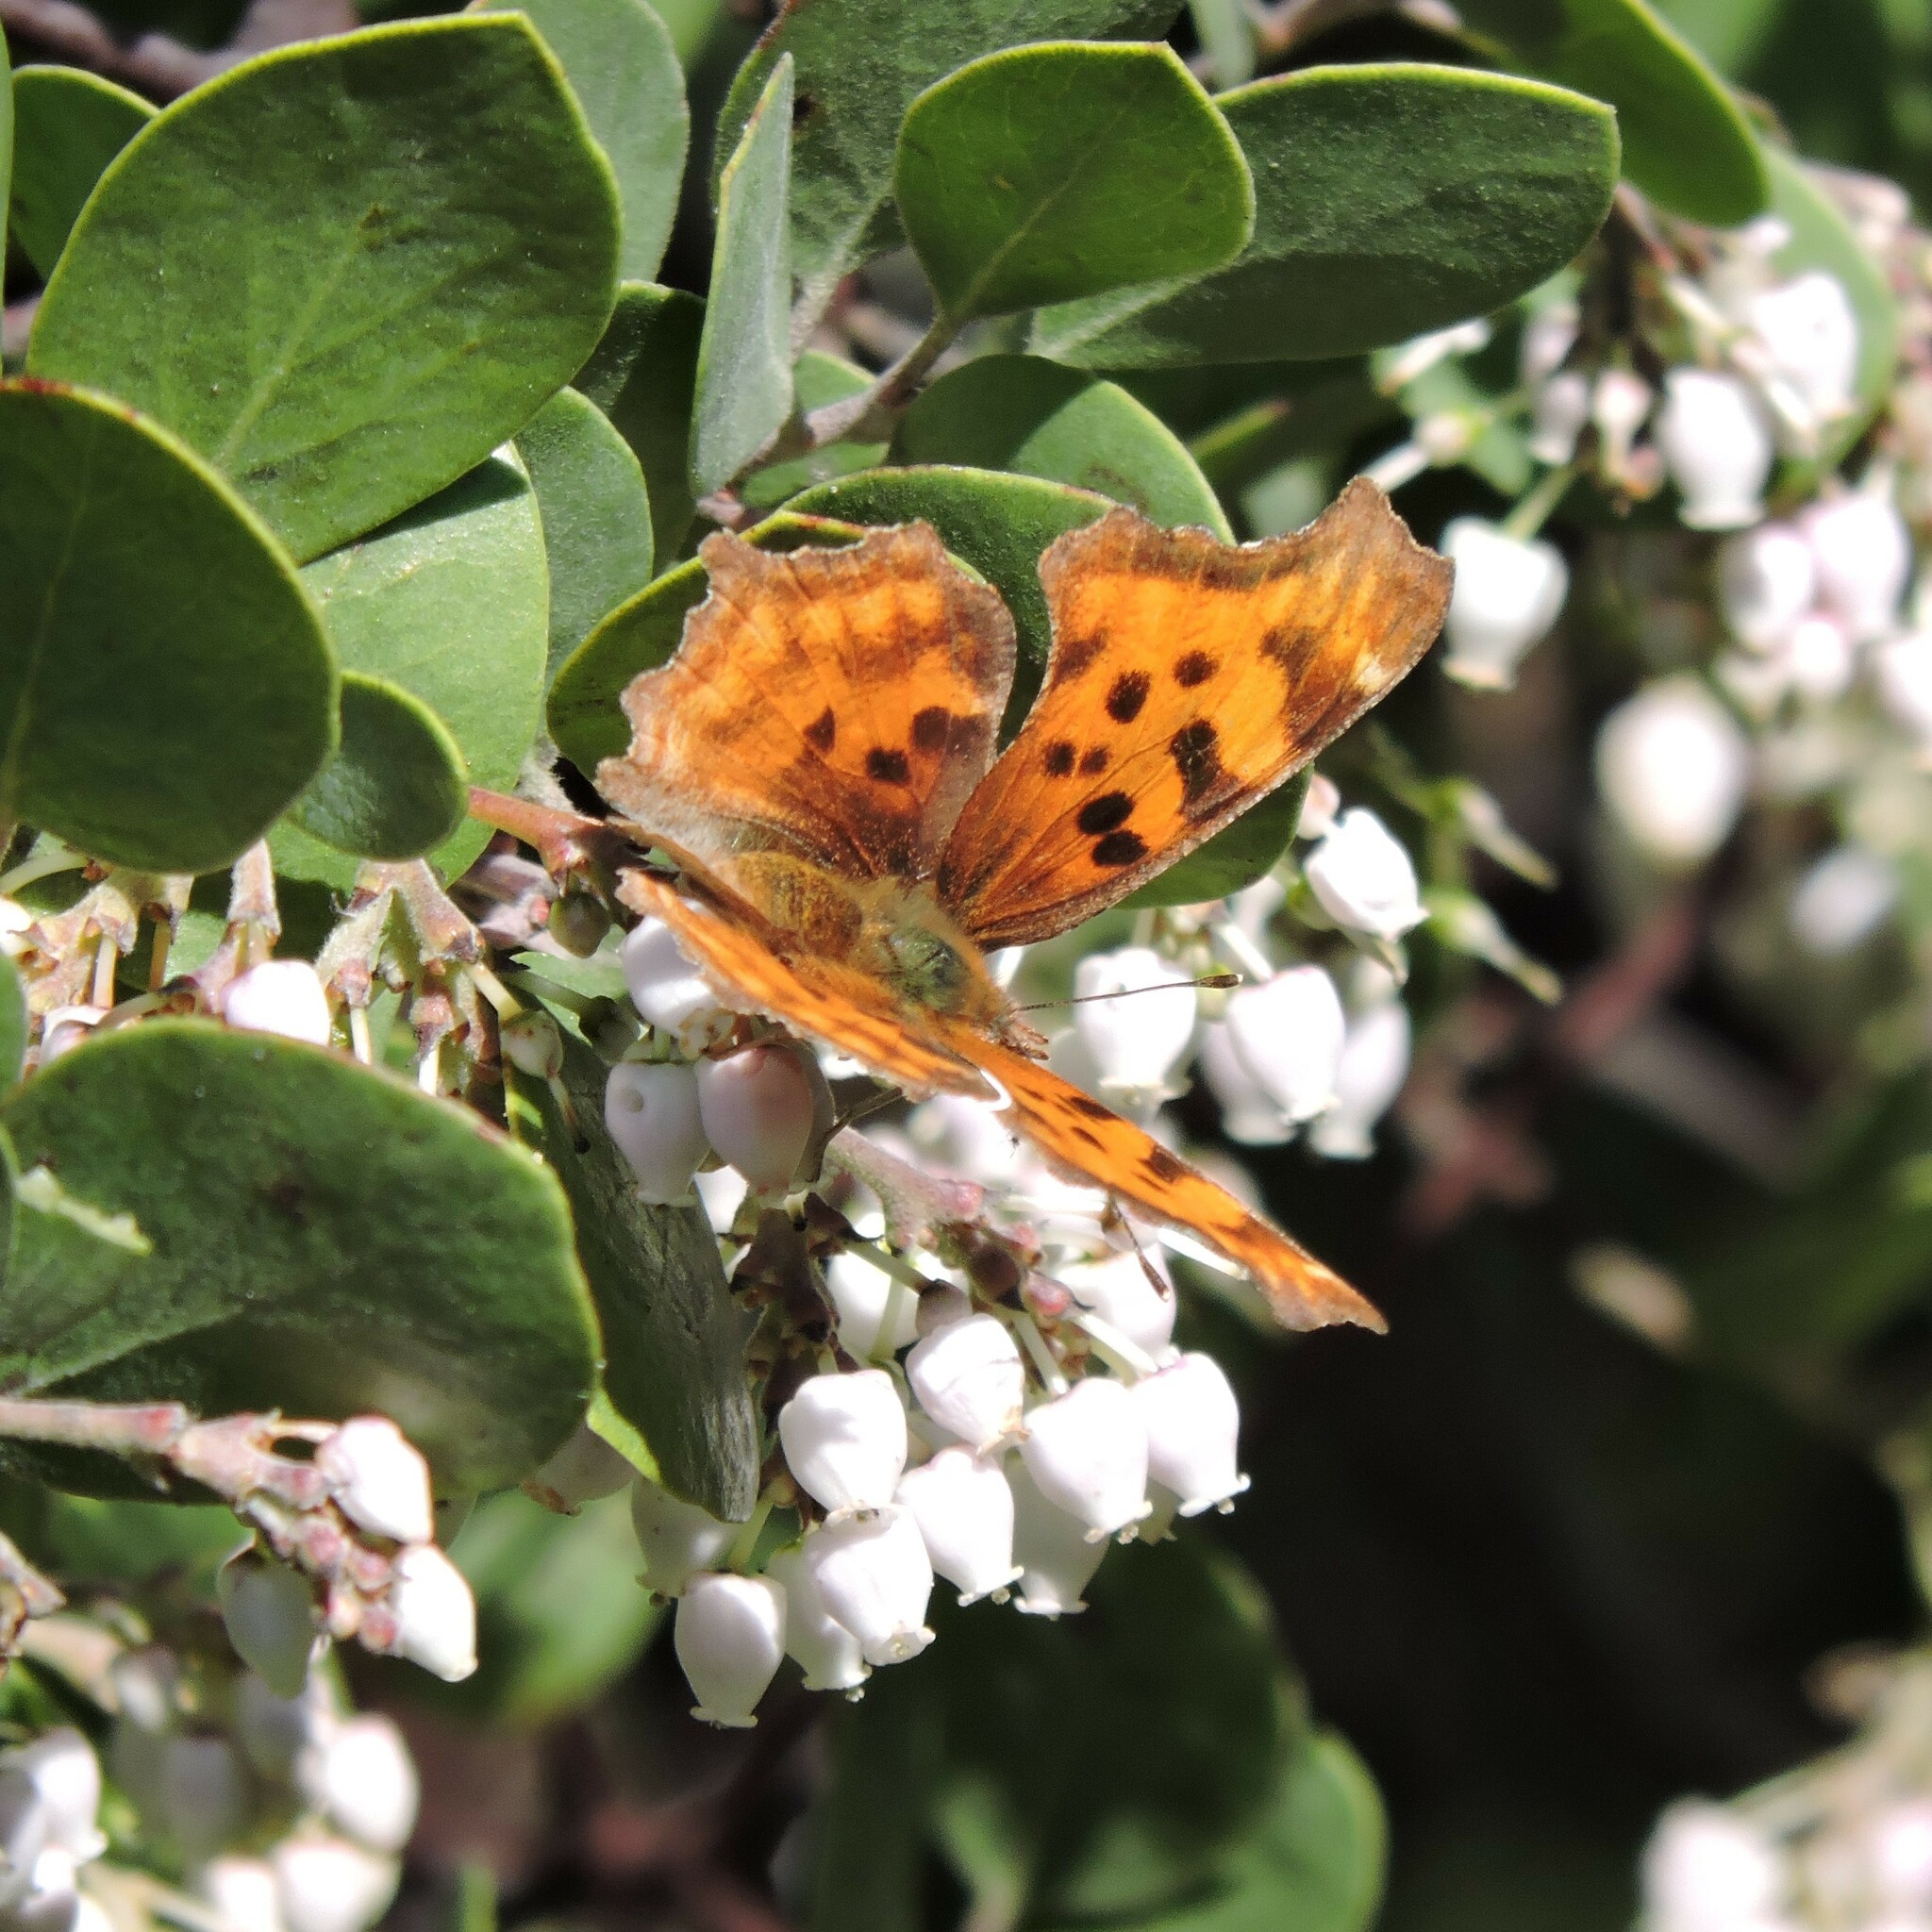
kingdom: Animalia
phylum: Arthropoda
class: Insecta
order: Lepidoptera
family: Nymphalidae
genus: Polygonia
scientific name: Polygonia satyrus
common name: Satyr angle wing
